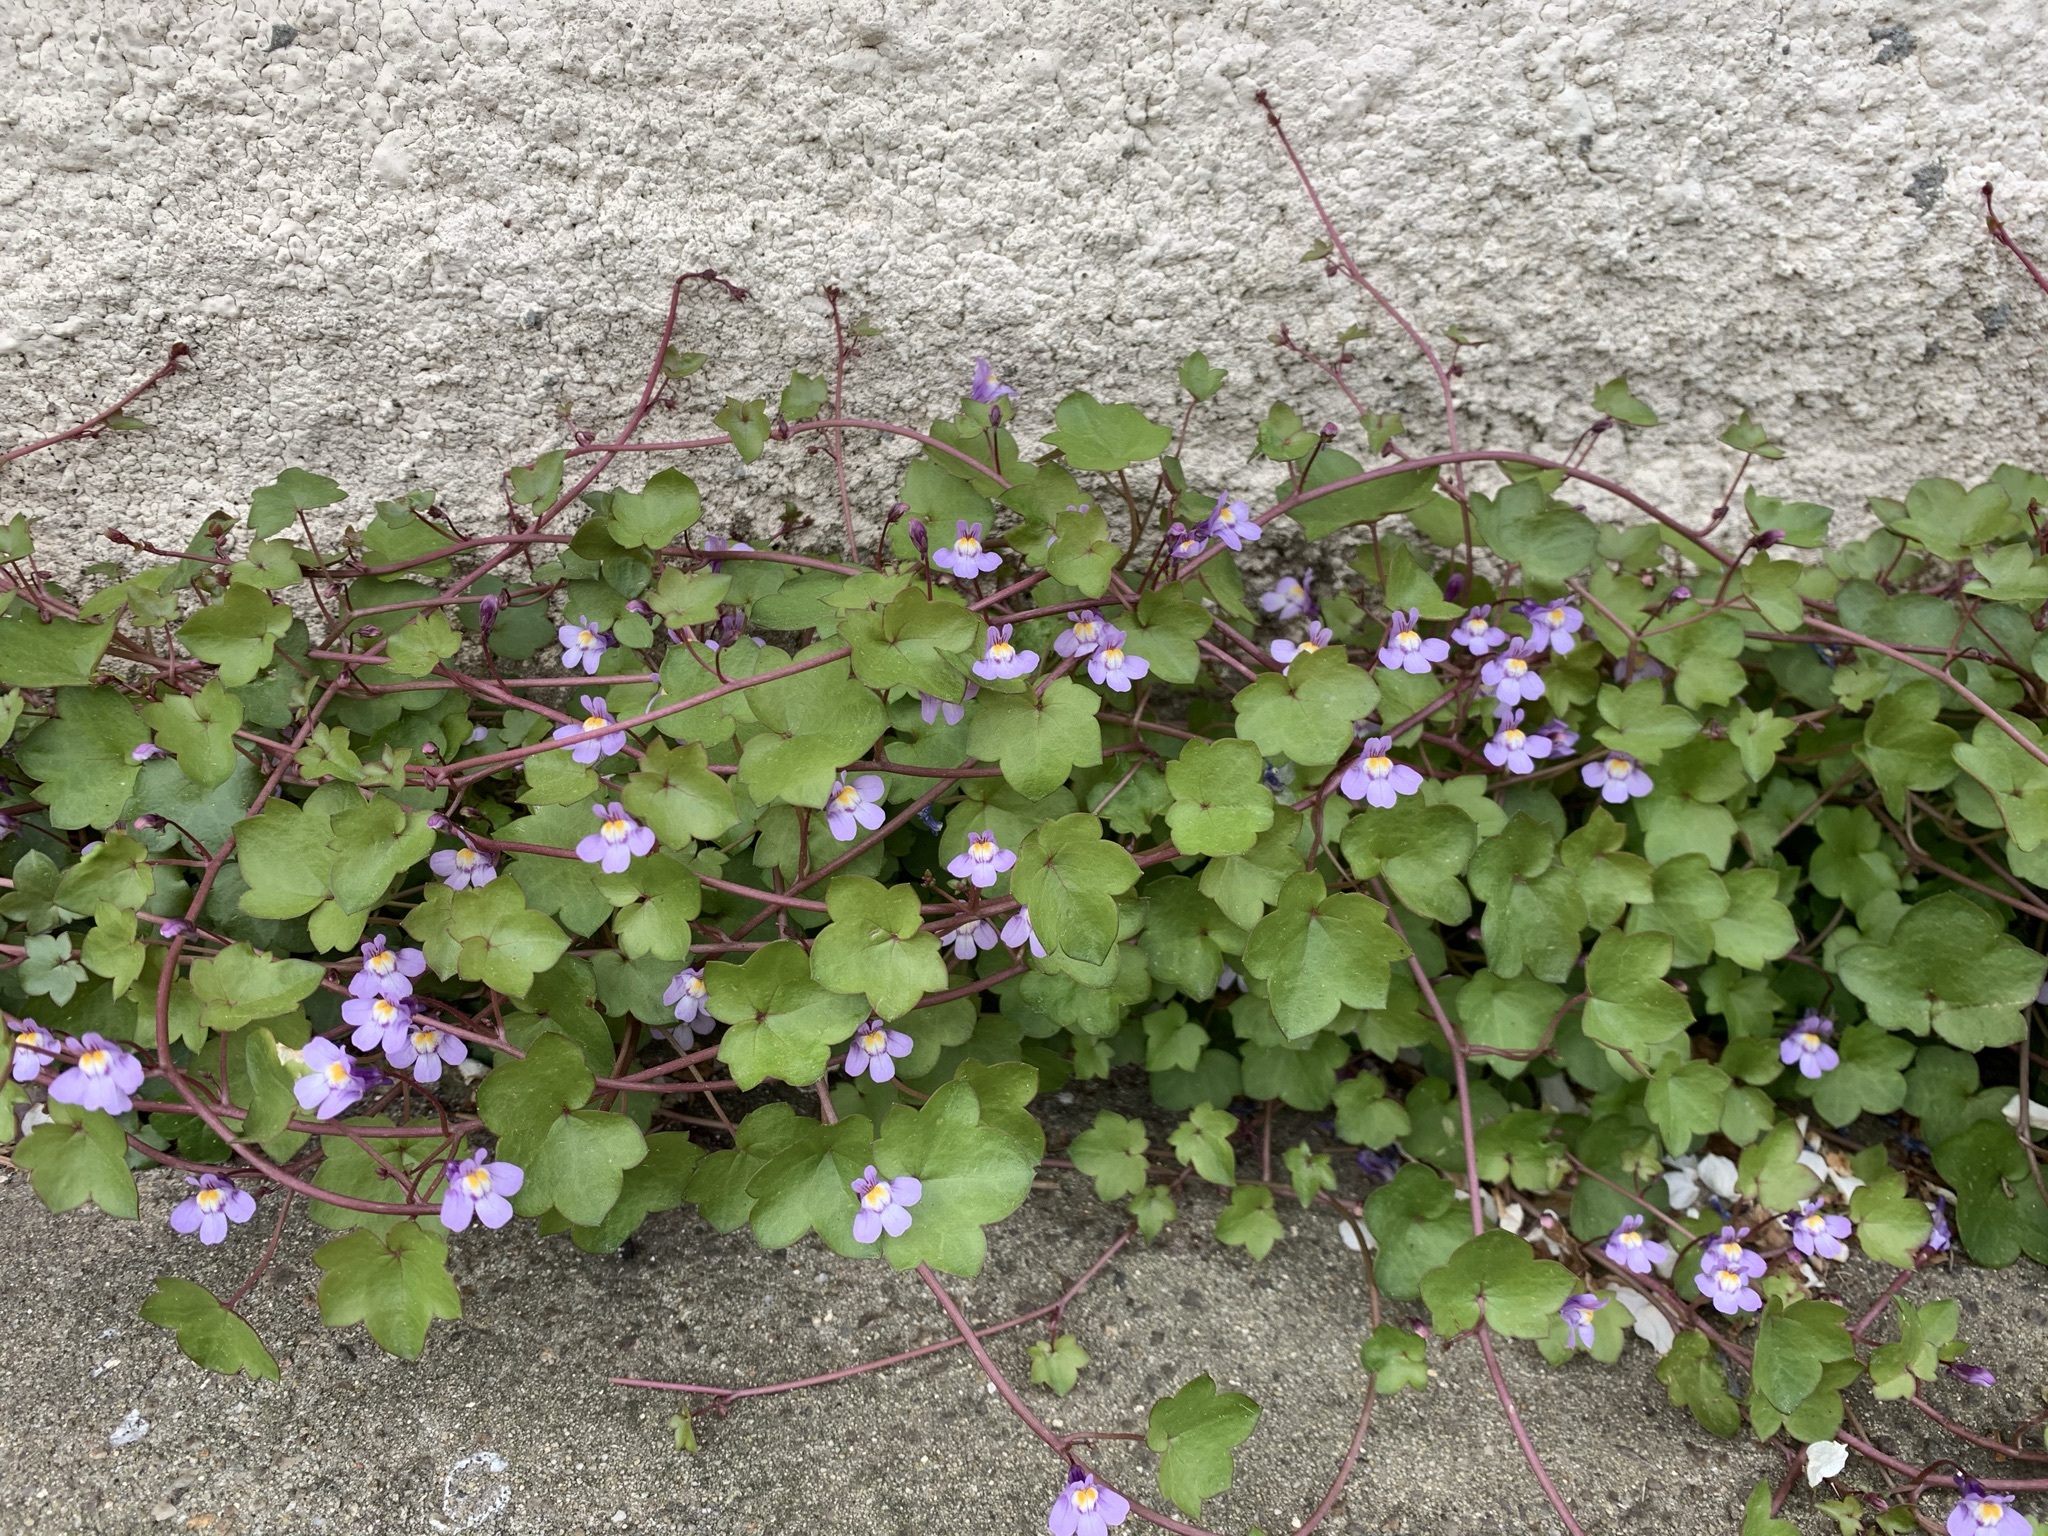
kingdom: Plantae
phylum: Tracheophyta
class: Magnoliopsida
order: Lamiales
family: Plantaginaceae
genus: Cymbalaria
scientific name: Cymbalaria muralis
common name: Ivy-leaved toadflax
